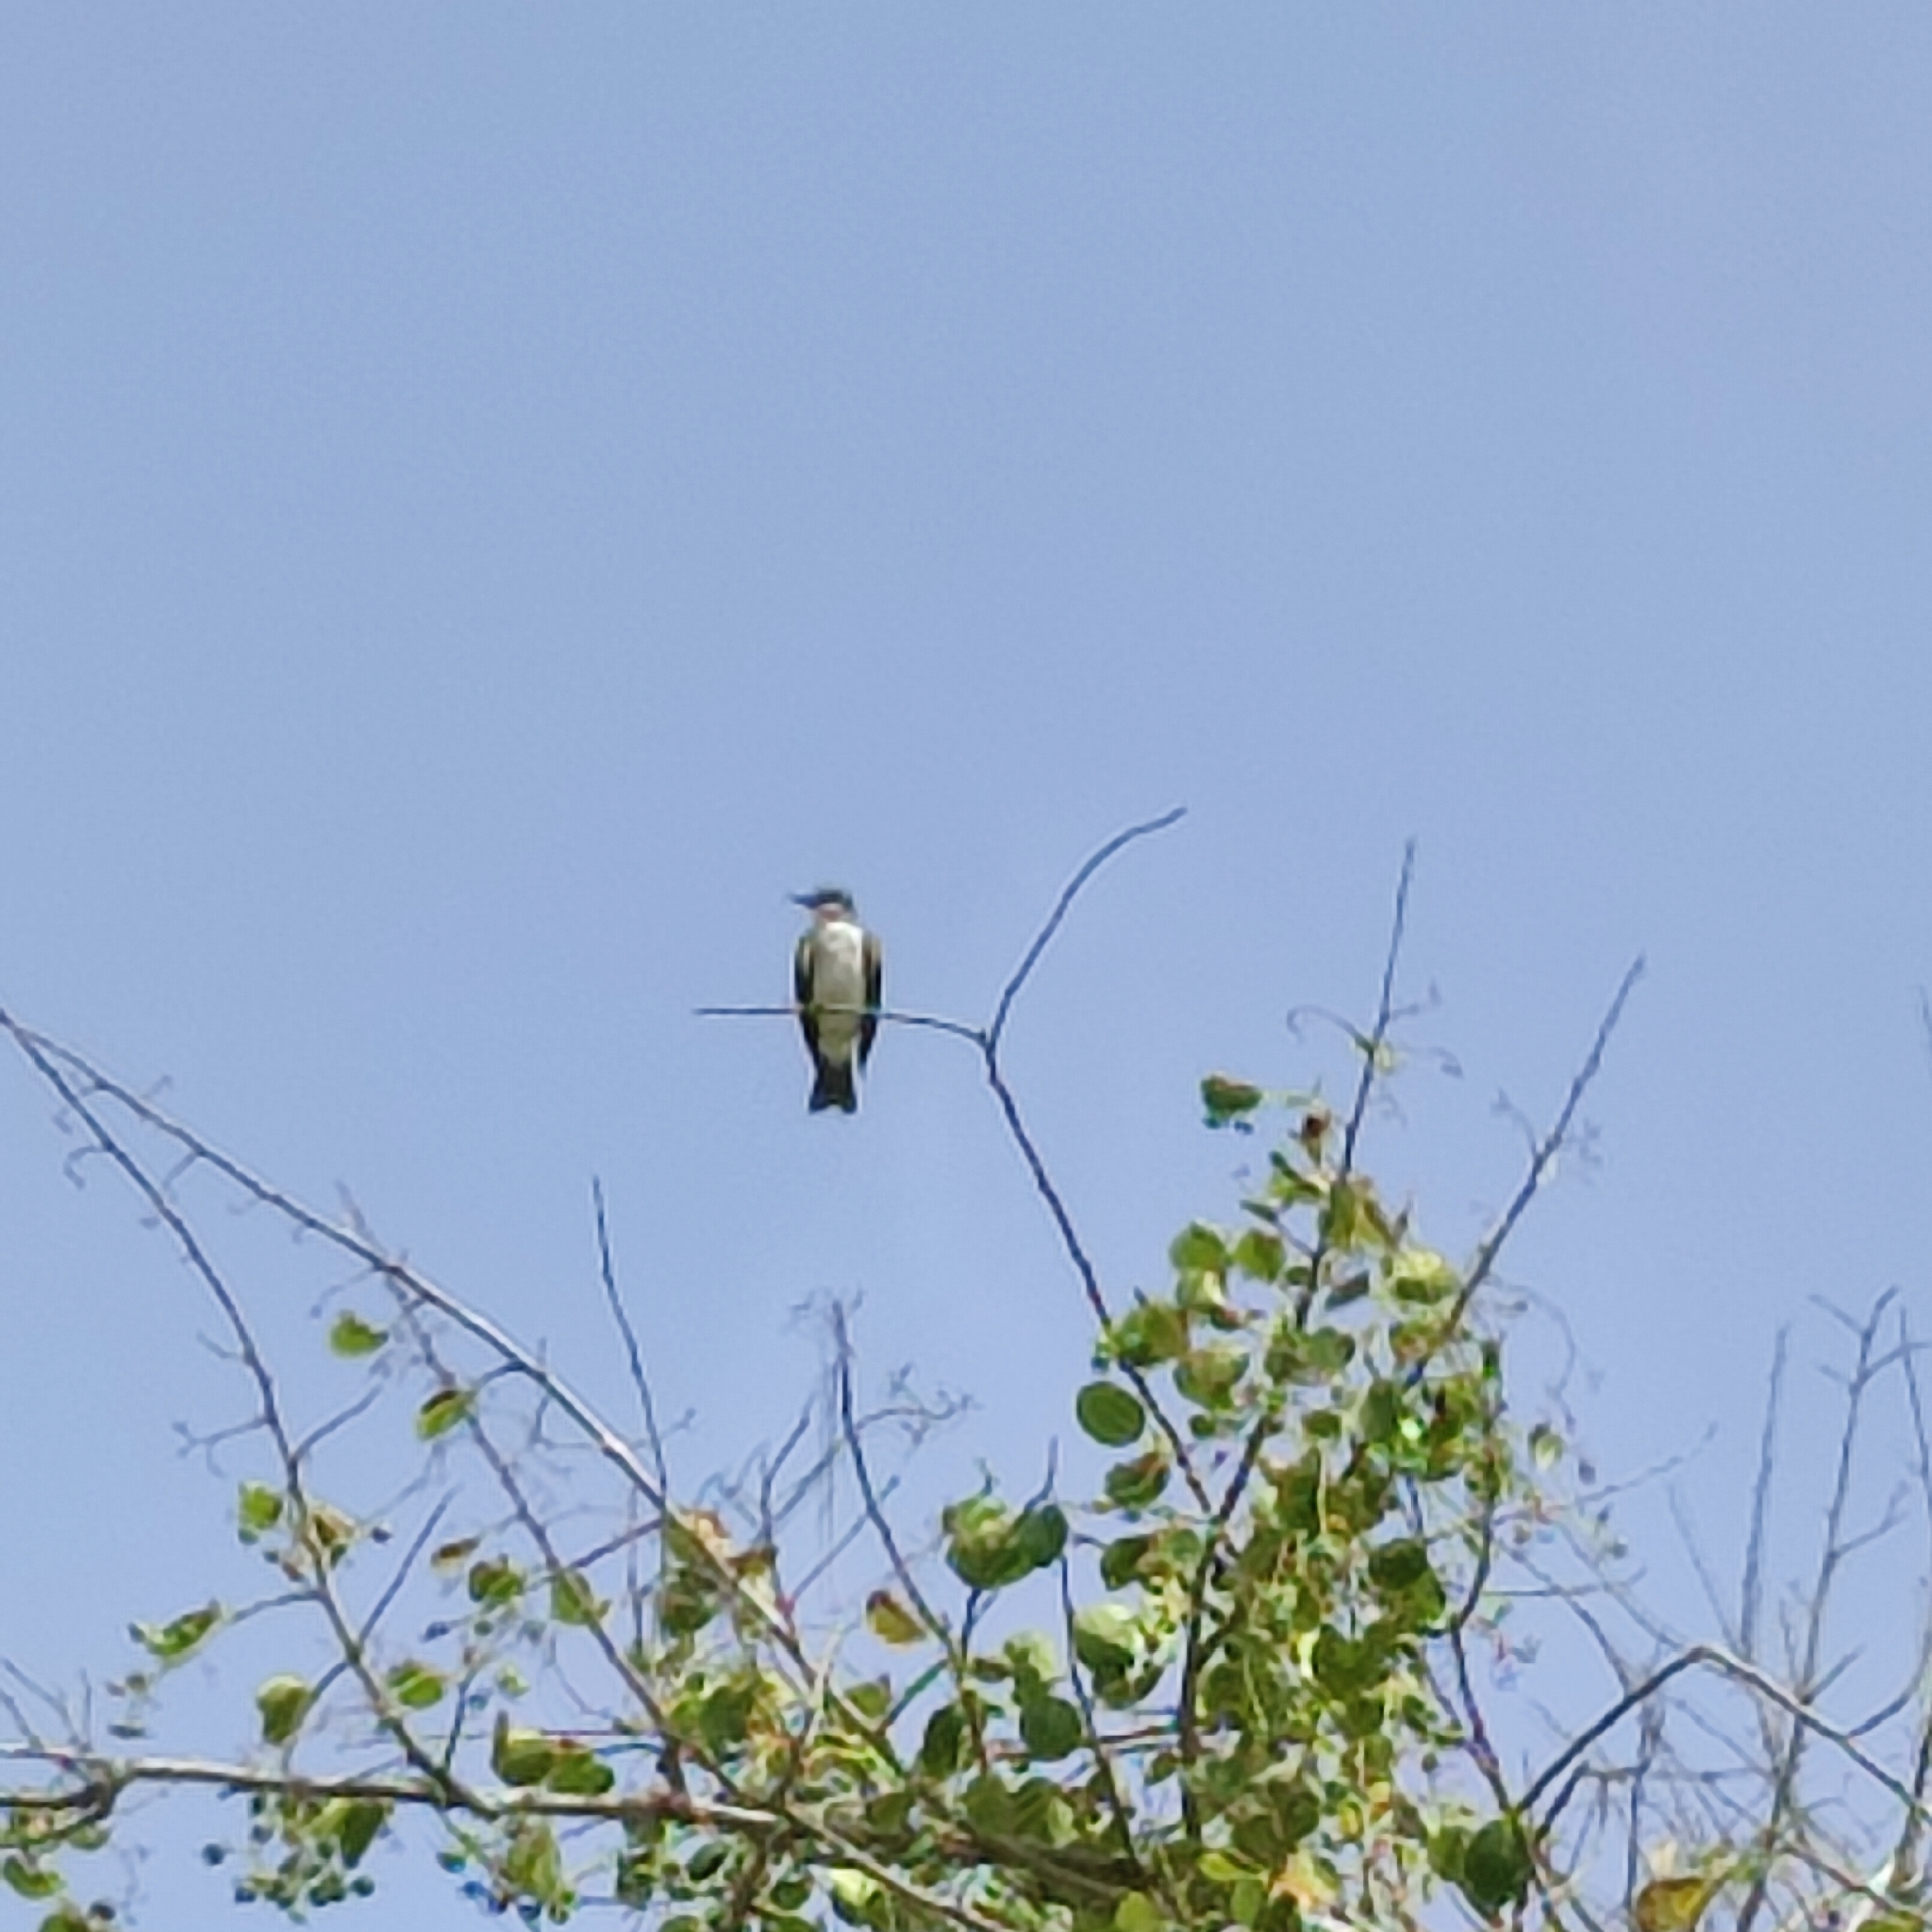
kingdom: Animalia
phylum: Chordata
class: Aves
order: Passeriformes
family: Tyrannidae
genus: Tyrannus
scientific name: Tyrannus dominicensis
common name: Gray kingbird
